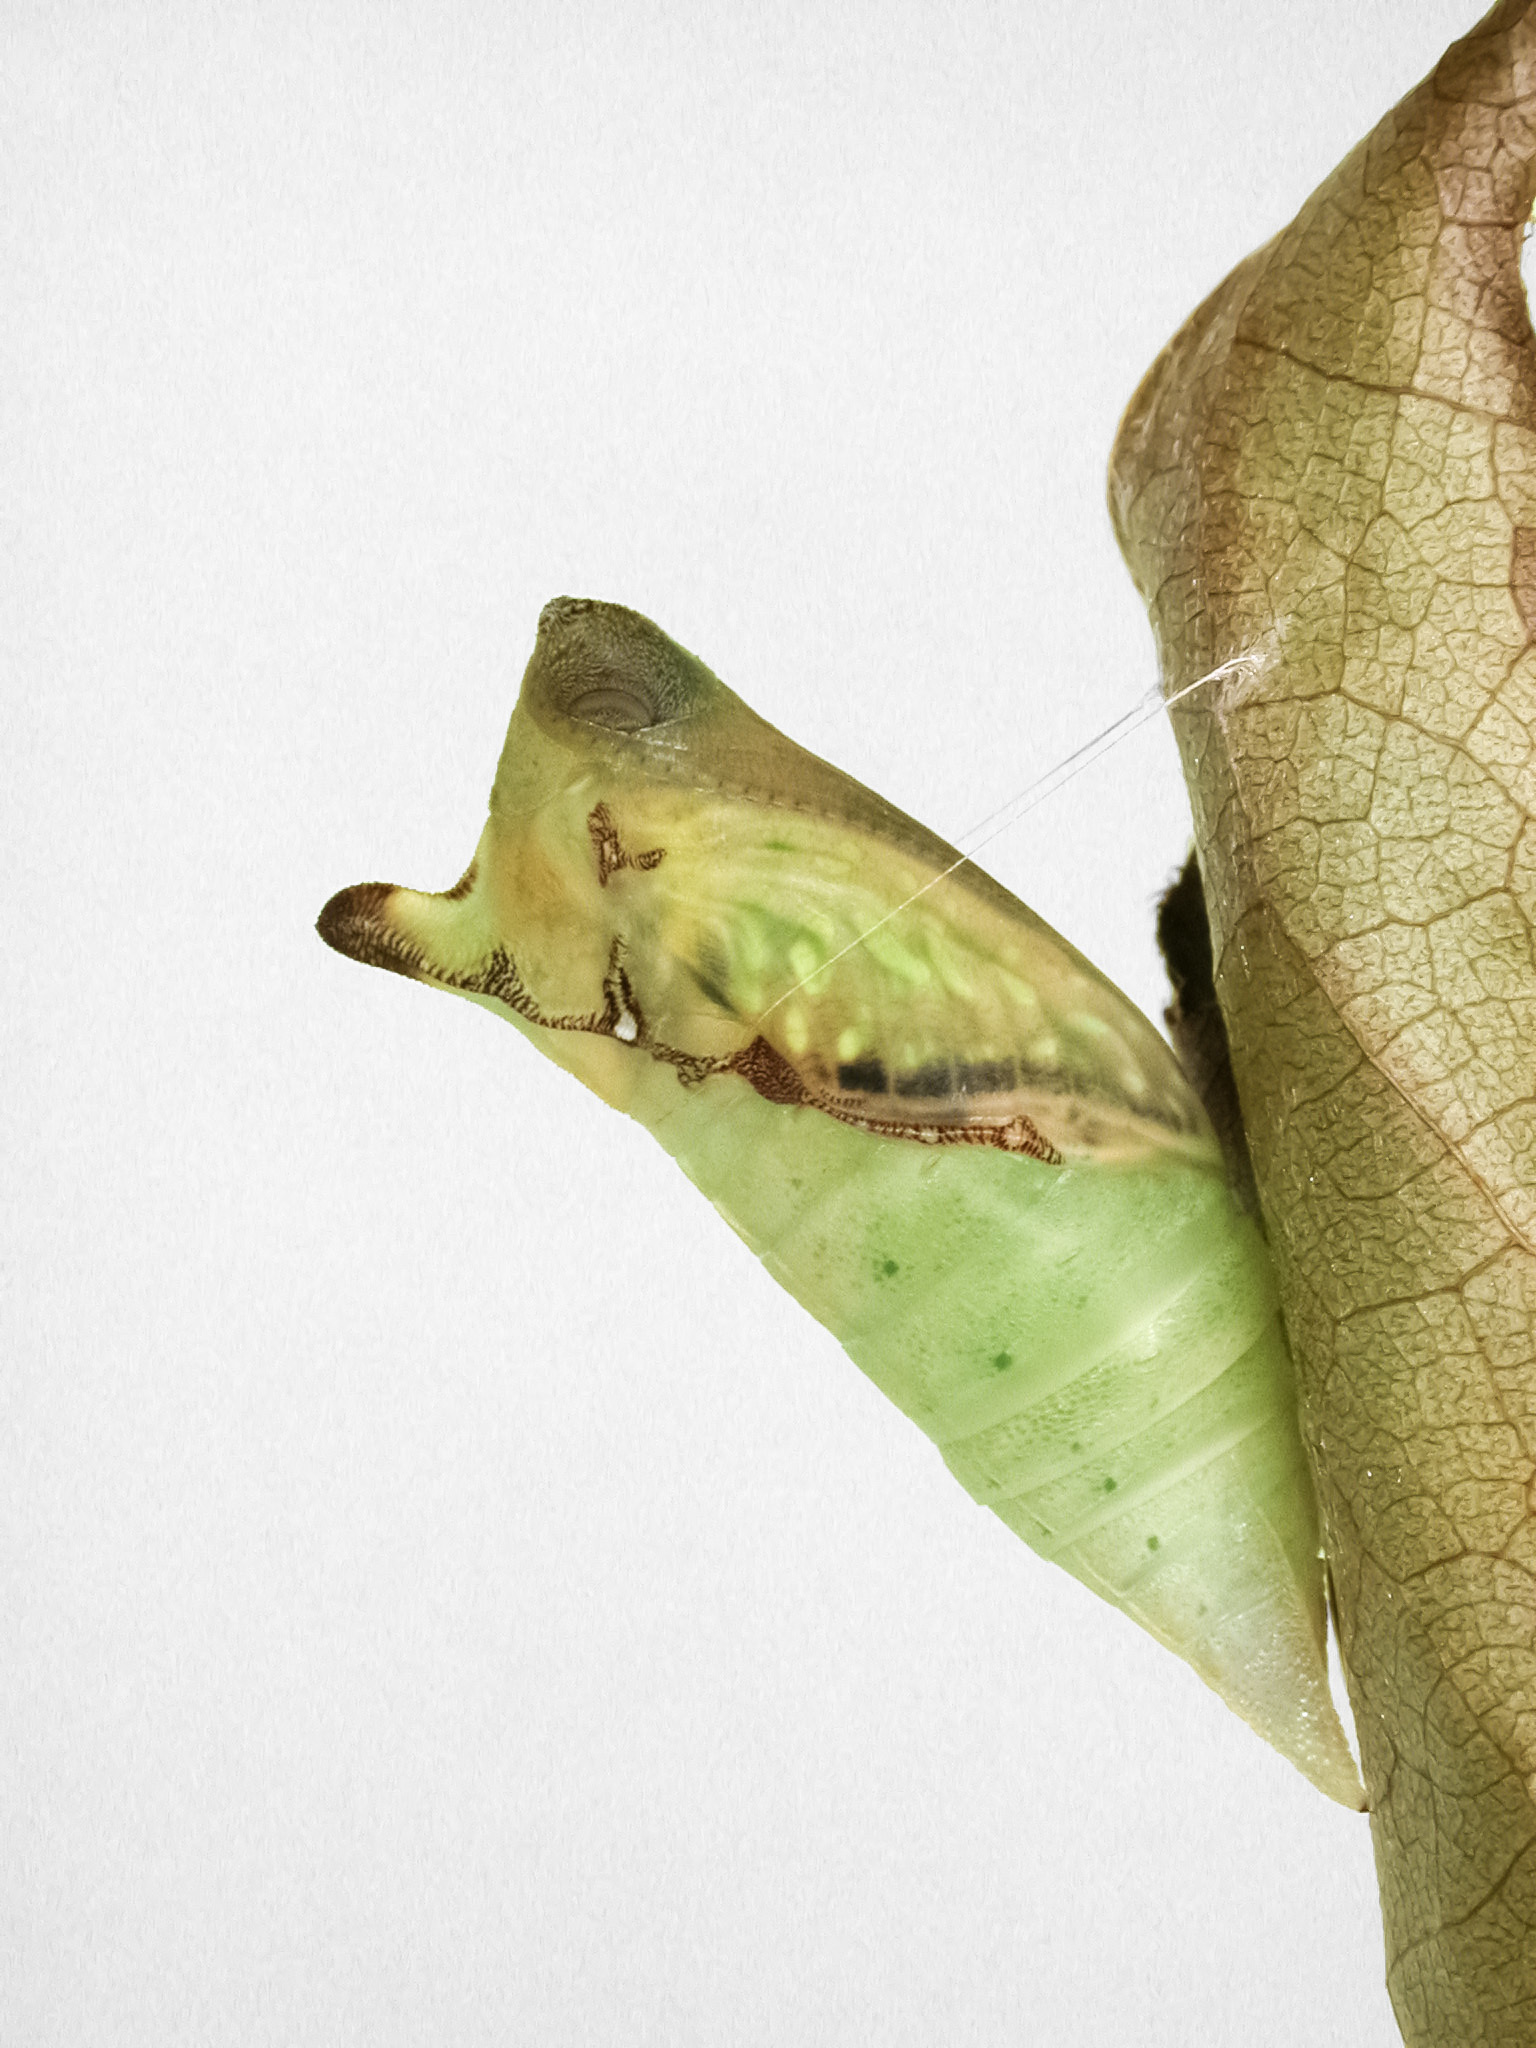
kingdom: Animalia
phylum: Arthropoda
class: Insecta
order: Lepidoptera
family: Papilionidae
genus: Graphium
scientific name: Graphium agamemnon
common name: Tailed jay
